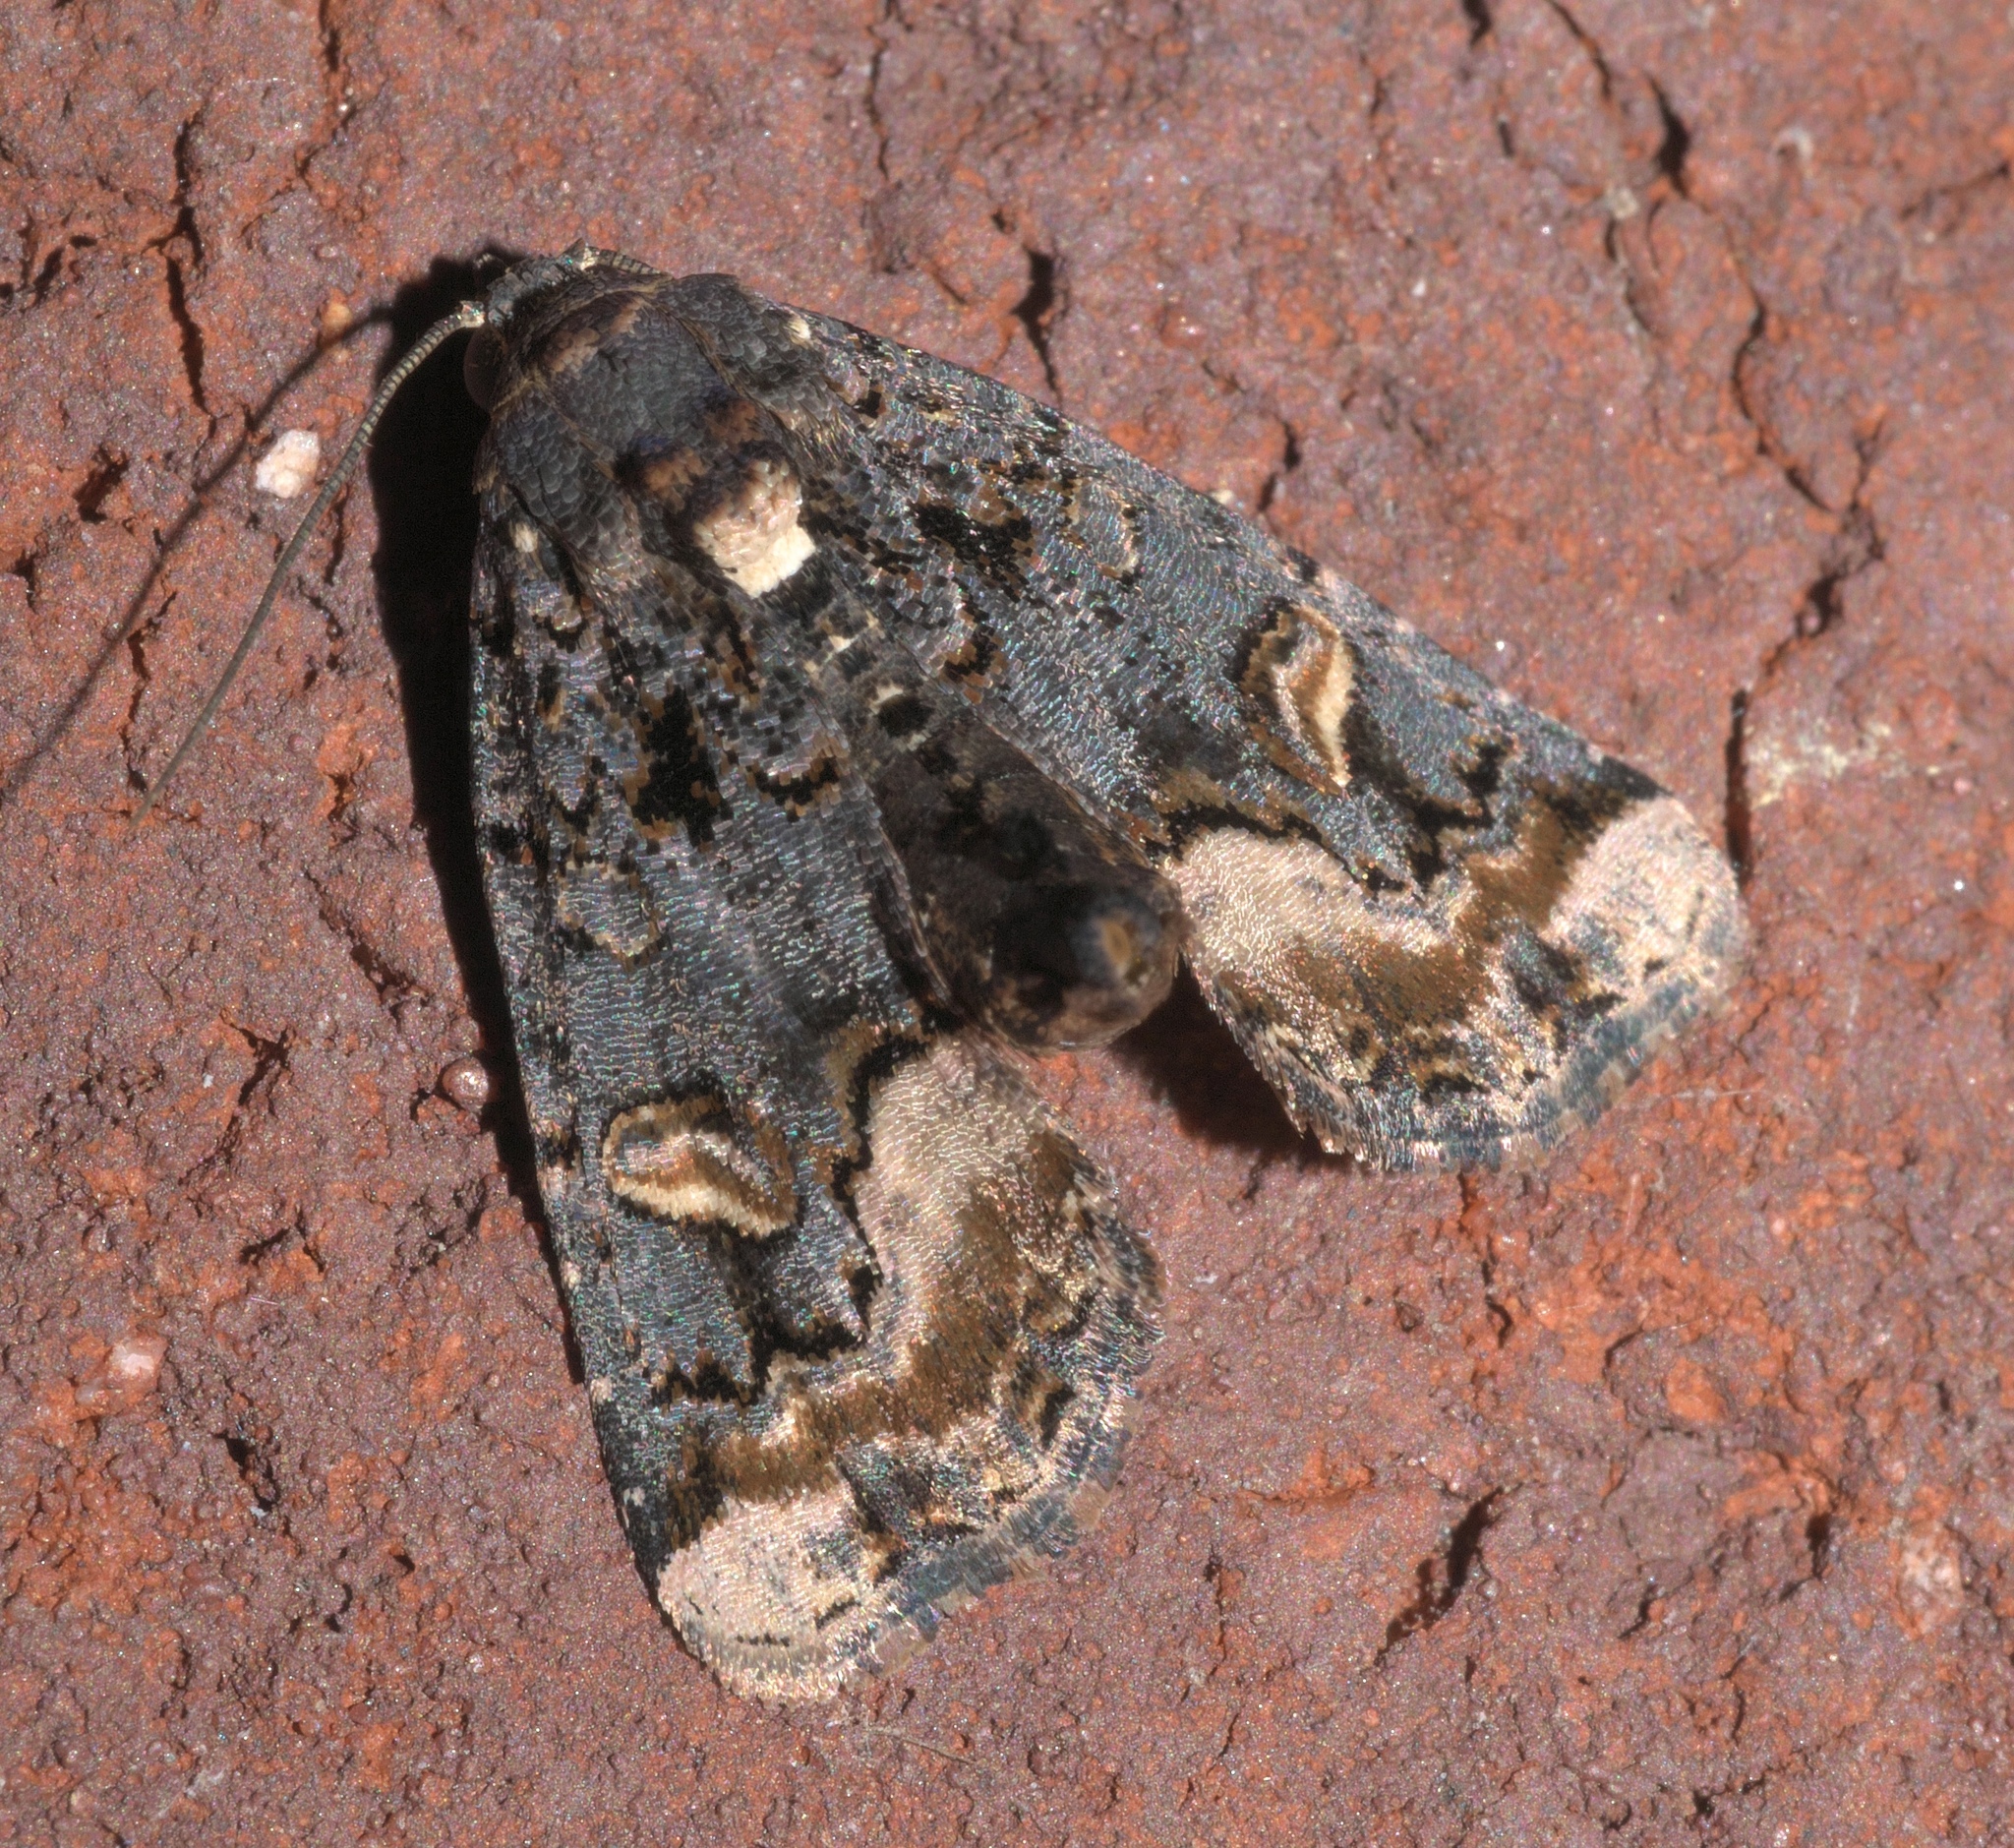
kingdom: Animalia
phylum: Arthropoda
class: Insecta
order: Lepidoptera
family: Noctuidae
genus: Homophoberia
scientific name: Homophoberia apicosa
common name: Black wedge-spot
